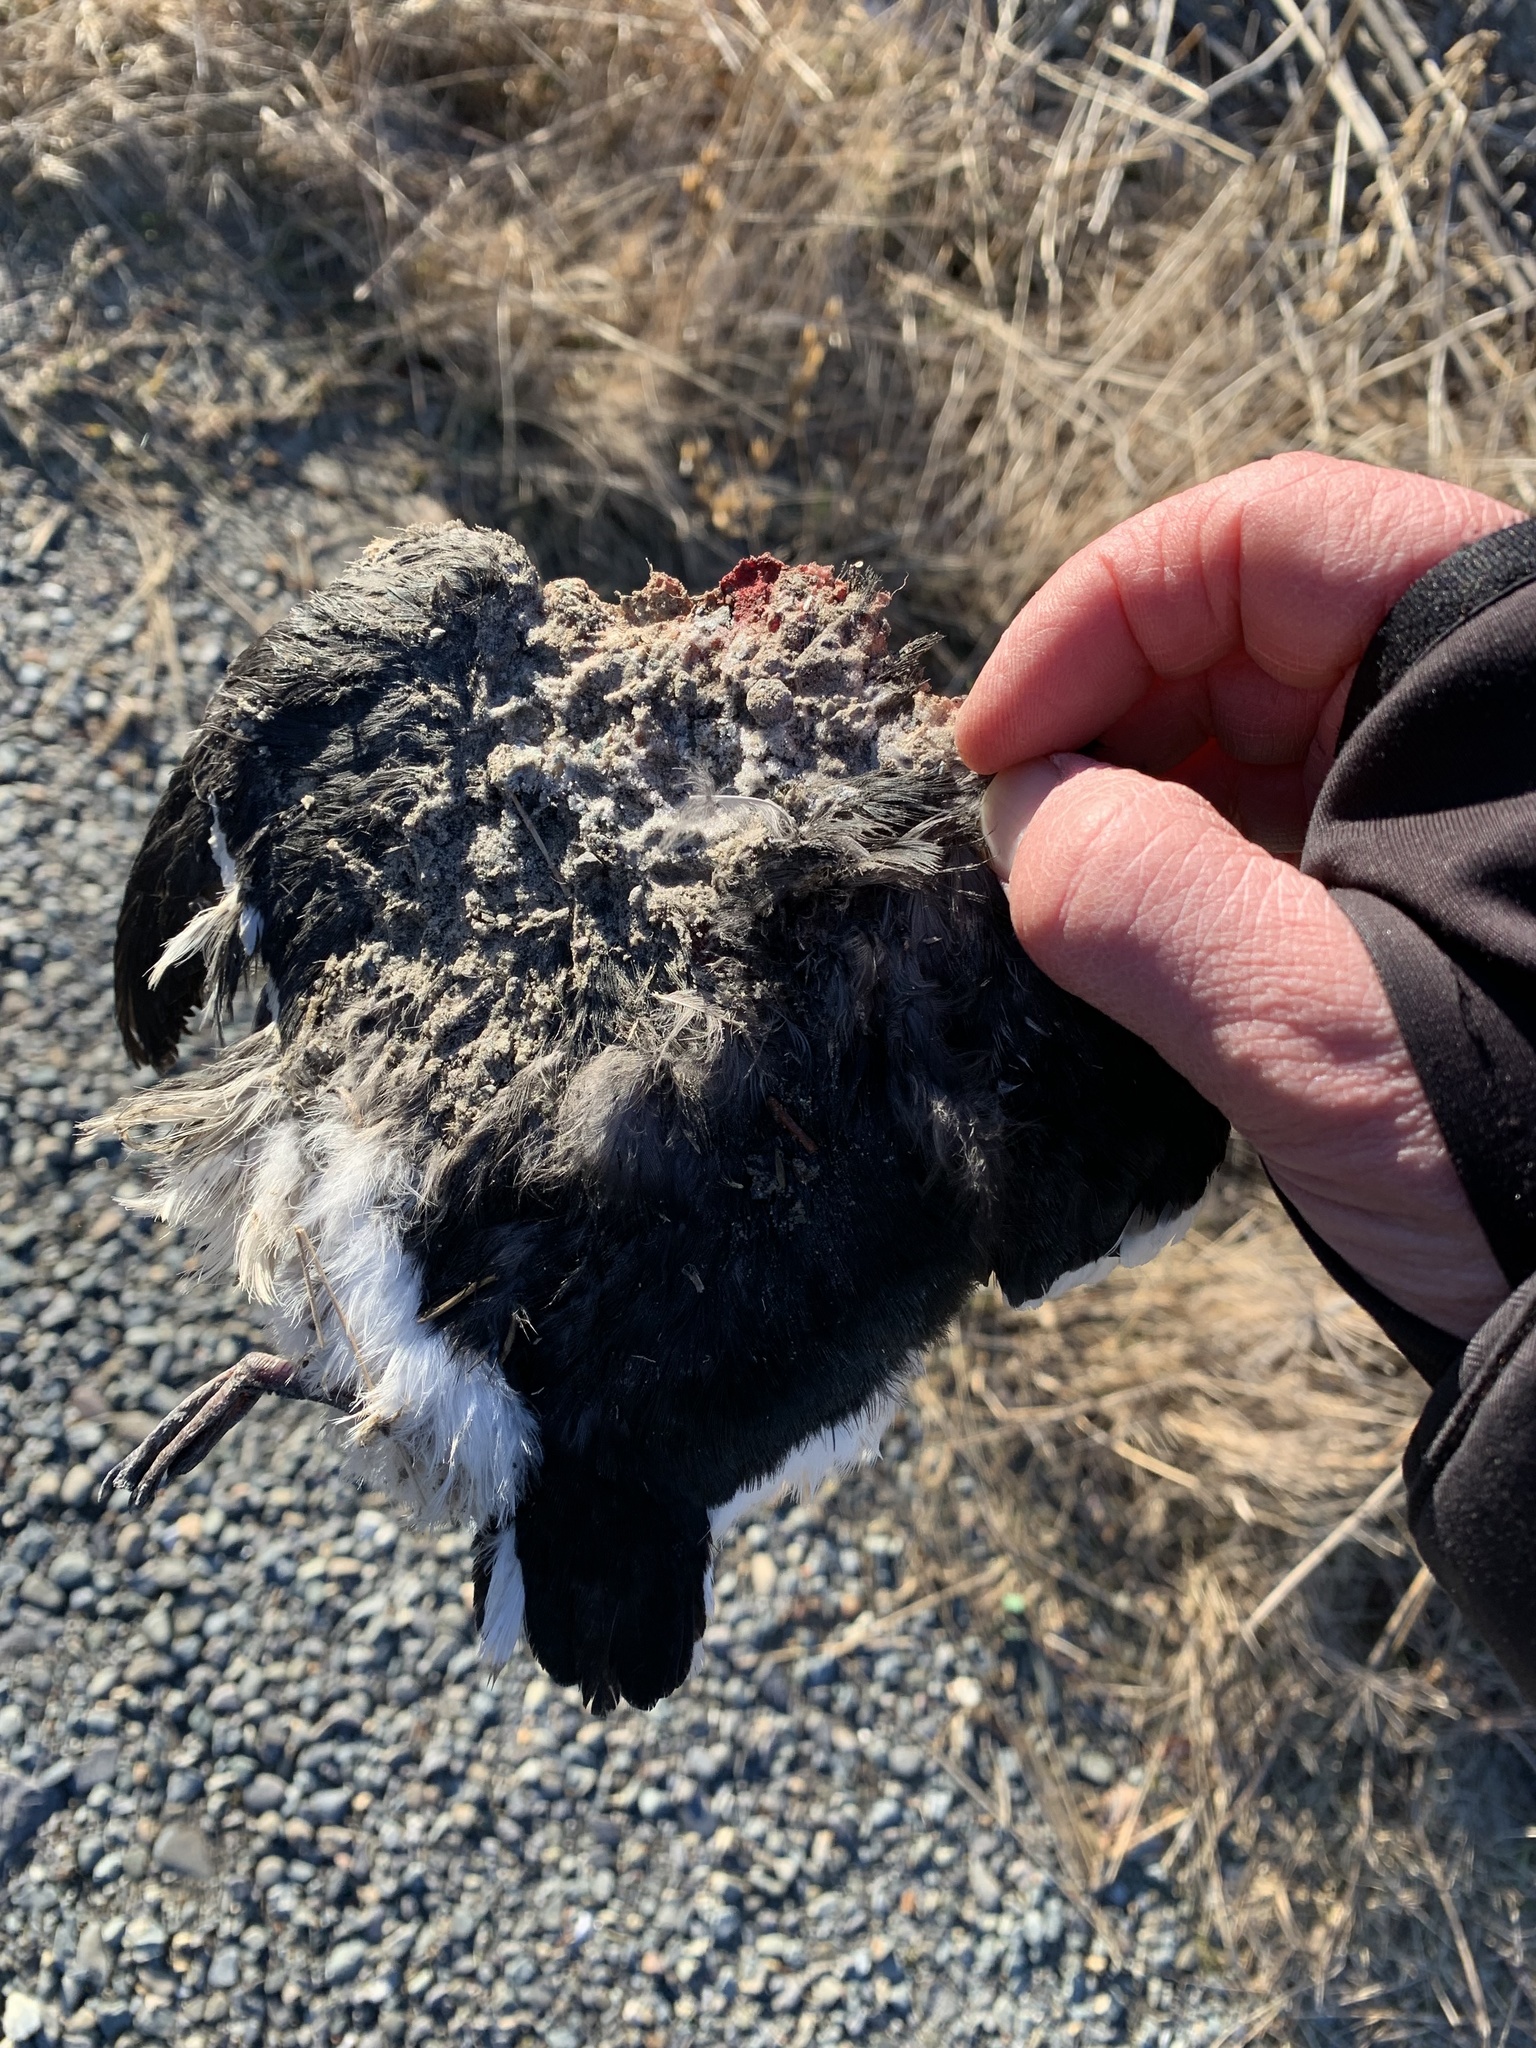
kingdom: Animalia
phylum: Chordata
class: Aves
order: Charadriiformes
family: Alcidae
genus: Alle
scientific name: Alle alle
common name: Little auk
